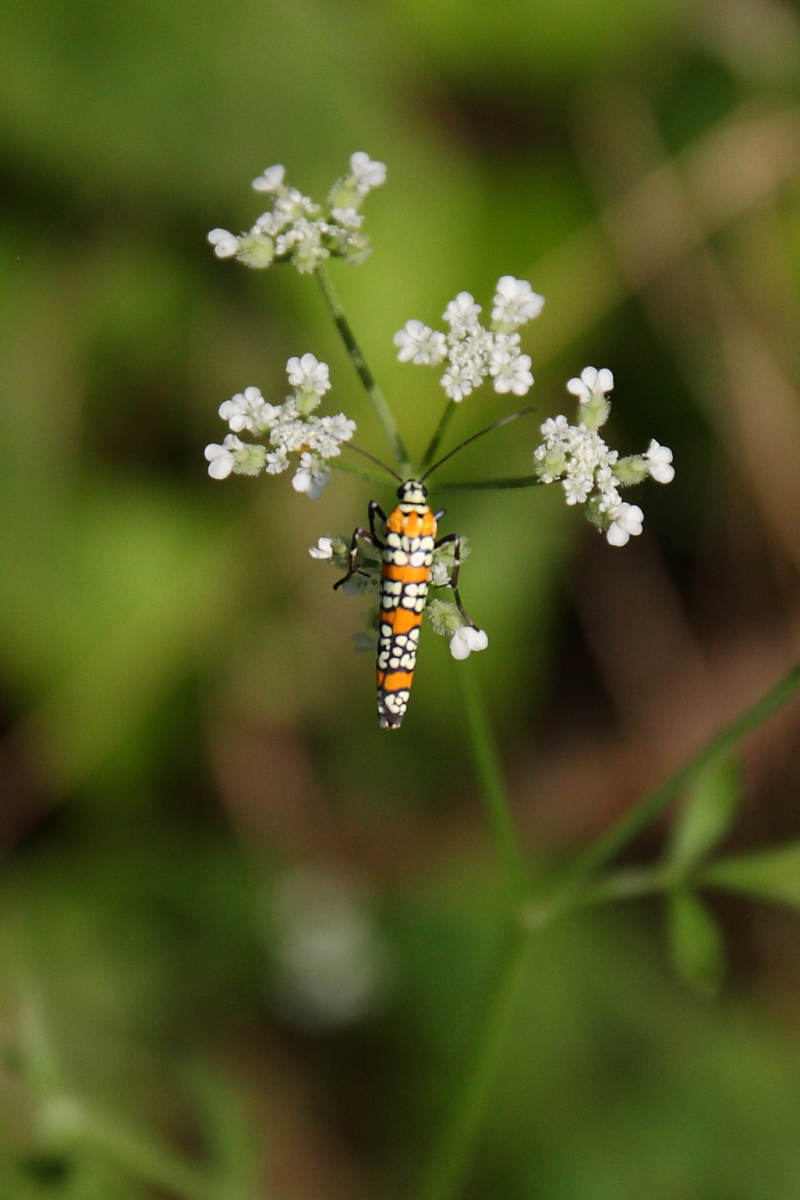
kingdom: Animalia
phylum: Arthropoda
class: Insecta
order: Lepidoptera
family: Attevidae
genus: Atteva
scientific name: Atteva punctella
